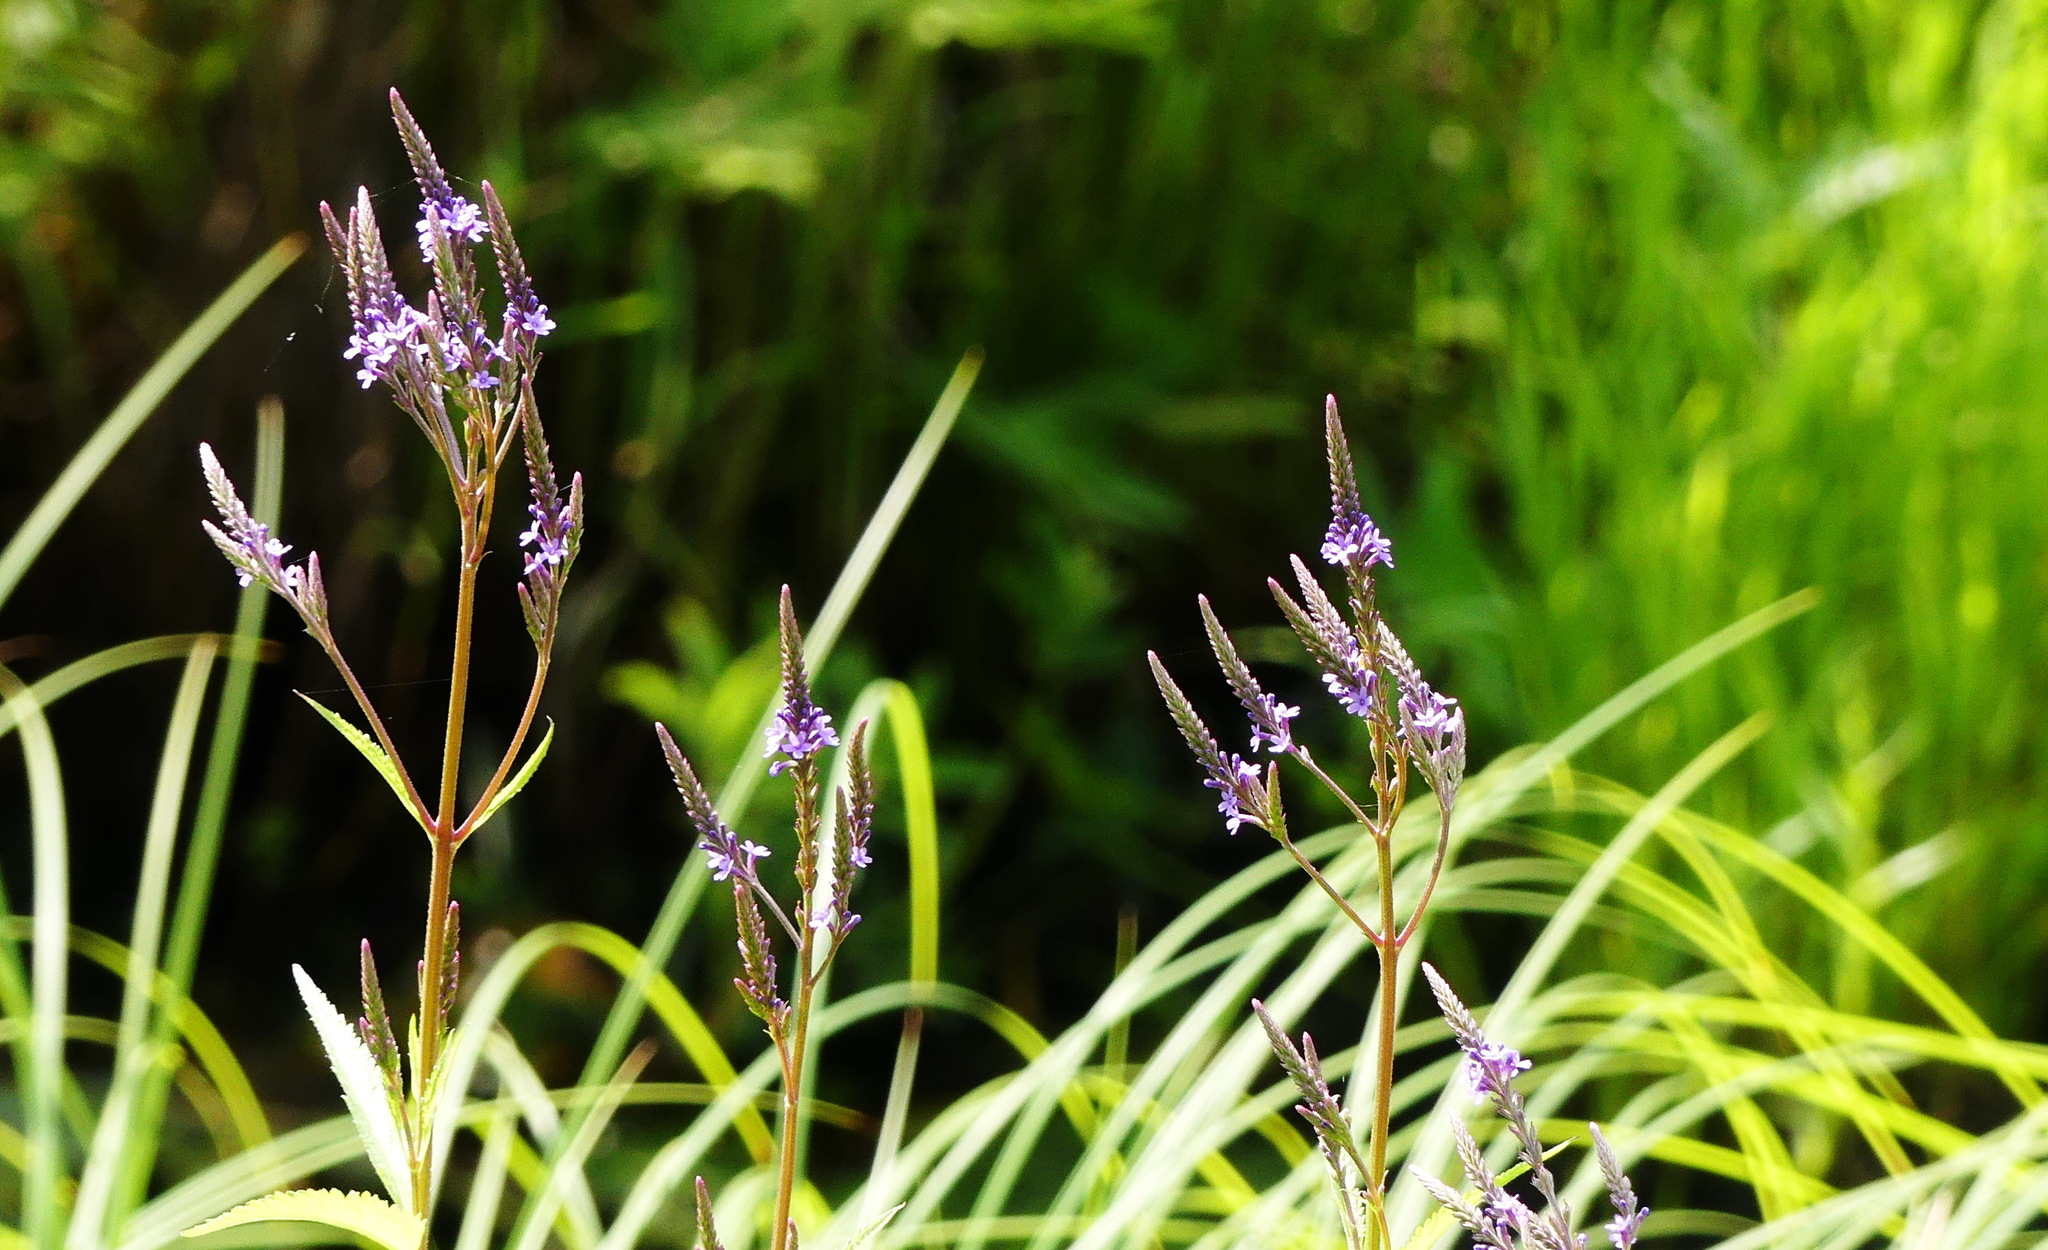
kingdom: Plantae
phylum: Tracheophyta
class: Magnoliopsida
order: Lamiales
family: Verbenaceae
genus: Verbena
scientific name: Verbena hastata
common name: American blue vervain
